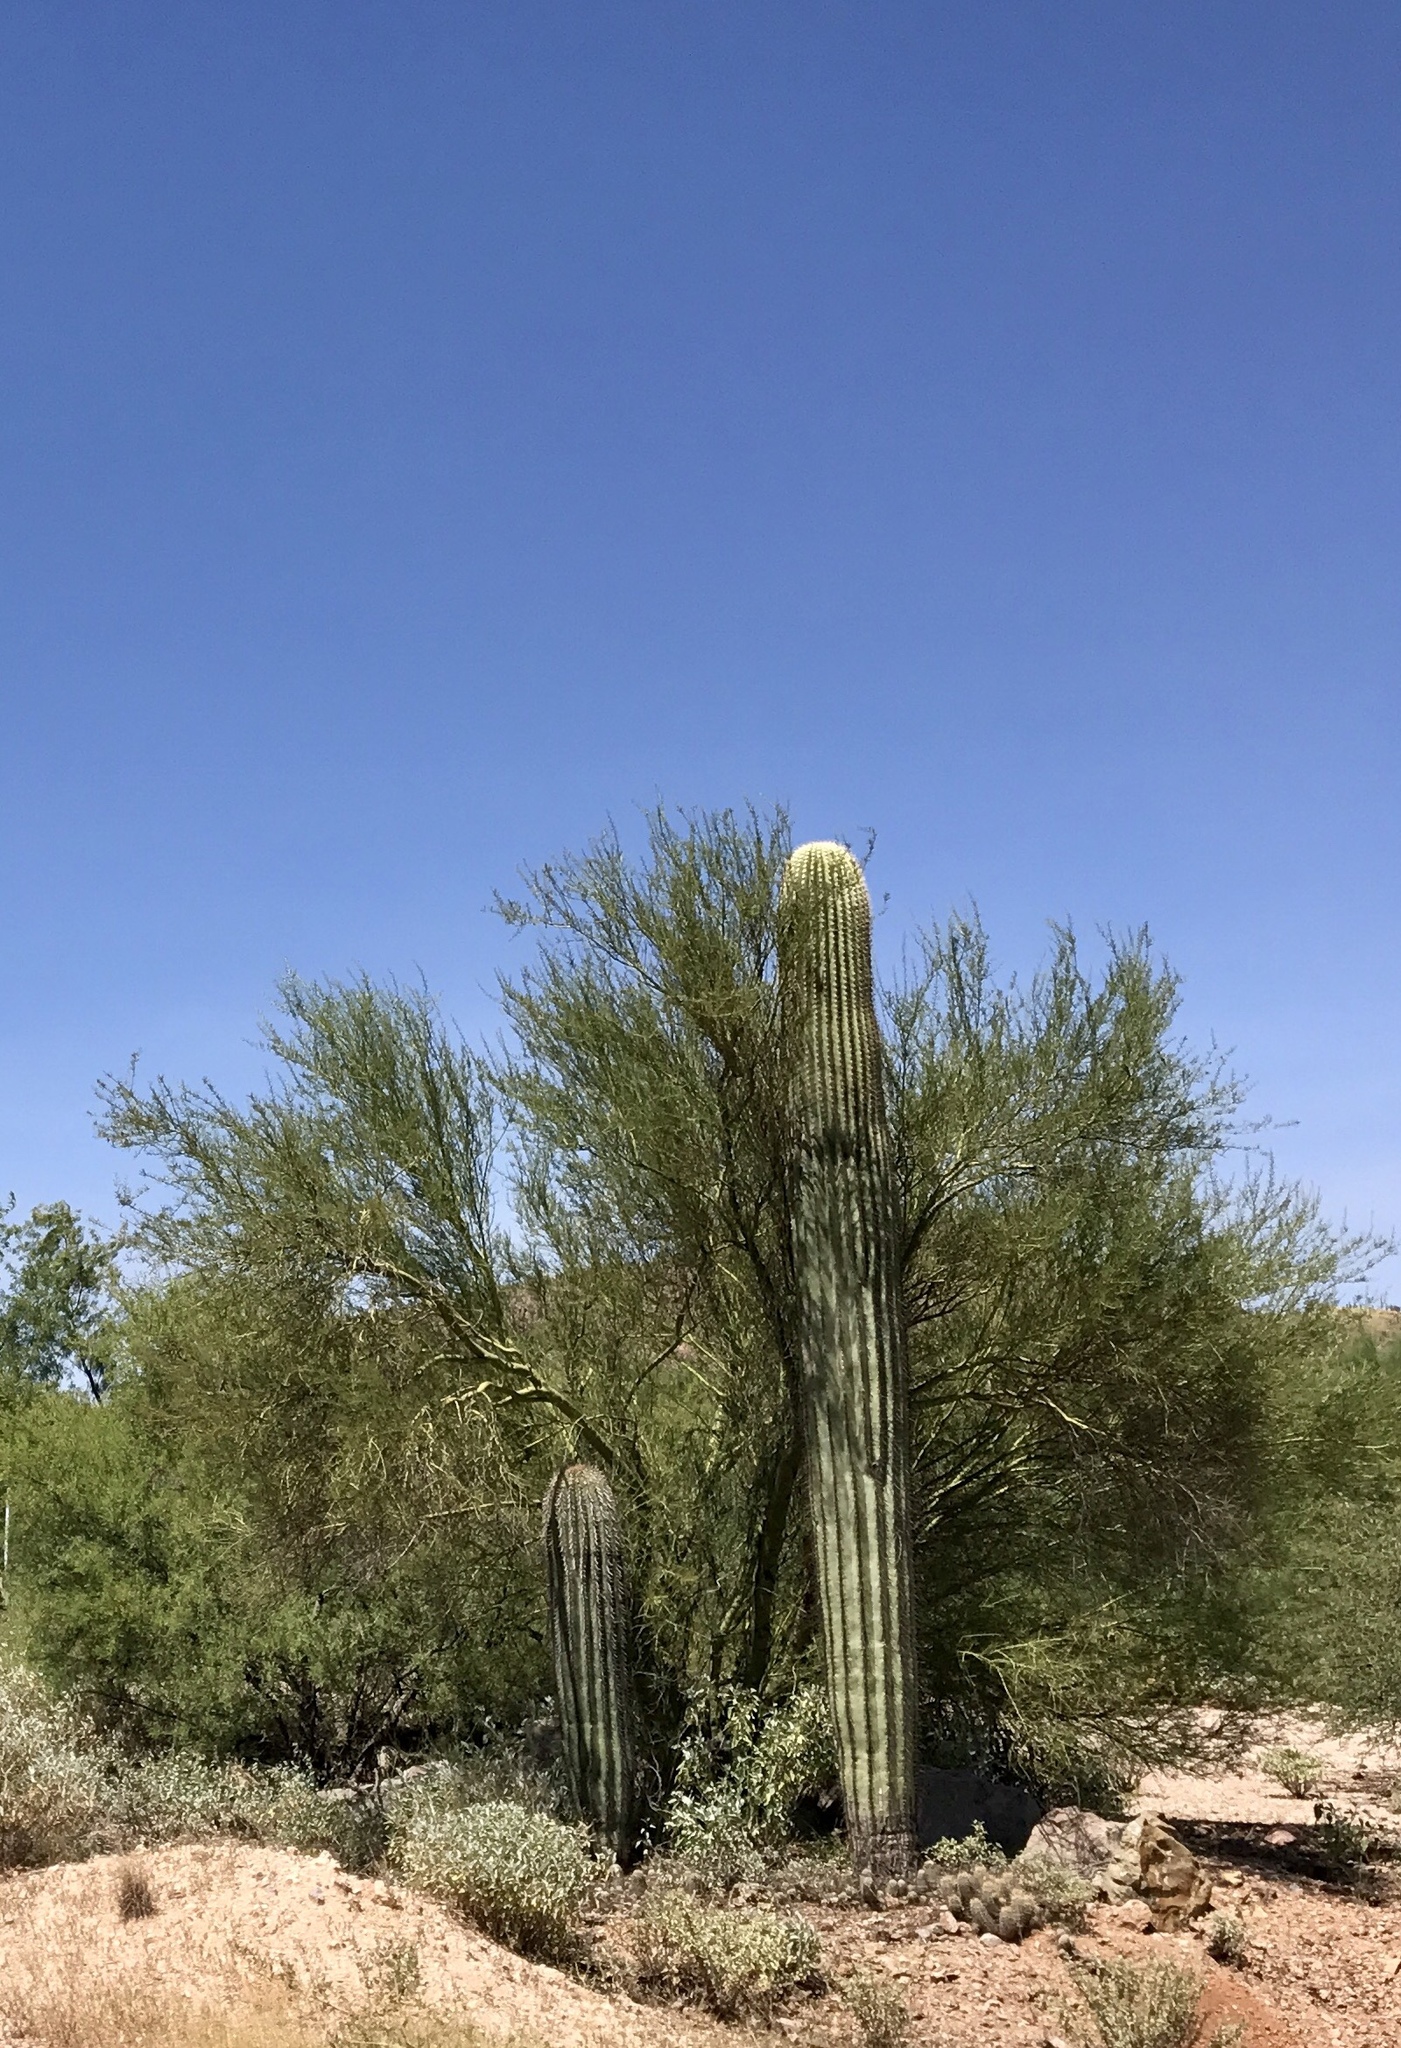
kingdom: Plantae
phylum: Tracheophyta
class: Magnoliopsida
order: Caryophyllales
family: Cactaceae
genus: Carnegiea
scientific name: Carnegiea gigantea
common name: Saguaro
